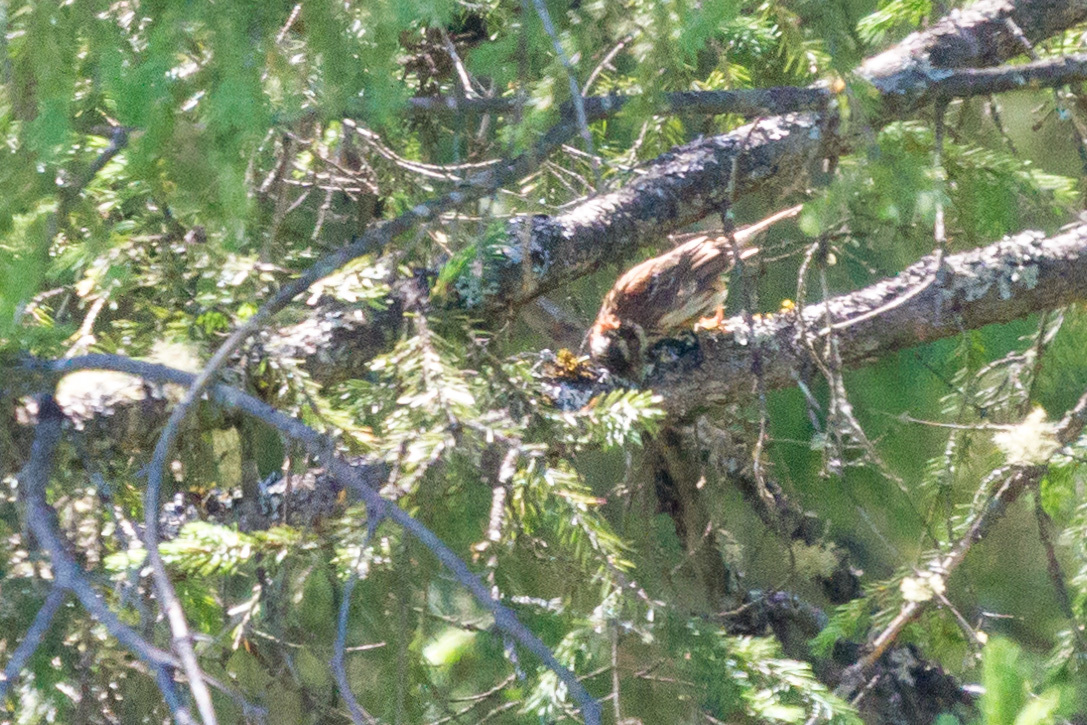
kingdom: Animalia
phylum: Chordata
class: Aves
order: Passeriformes
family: Emberizidae
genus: Emberiza
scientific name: Emberiza rustica
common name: Rustic bunting
